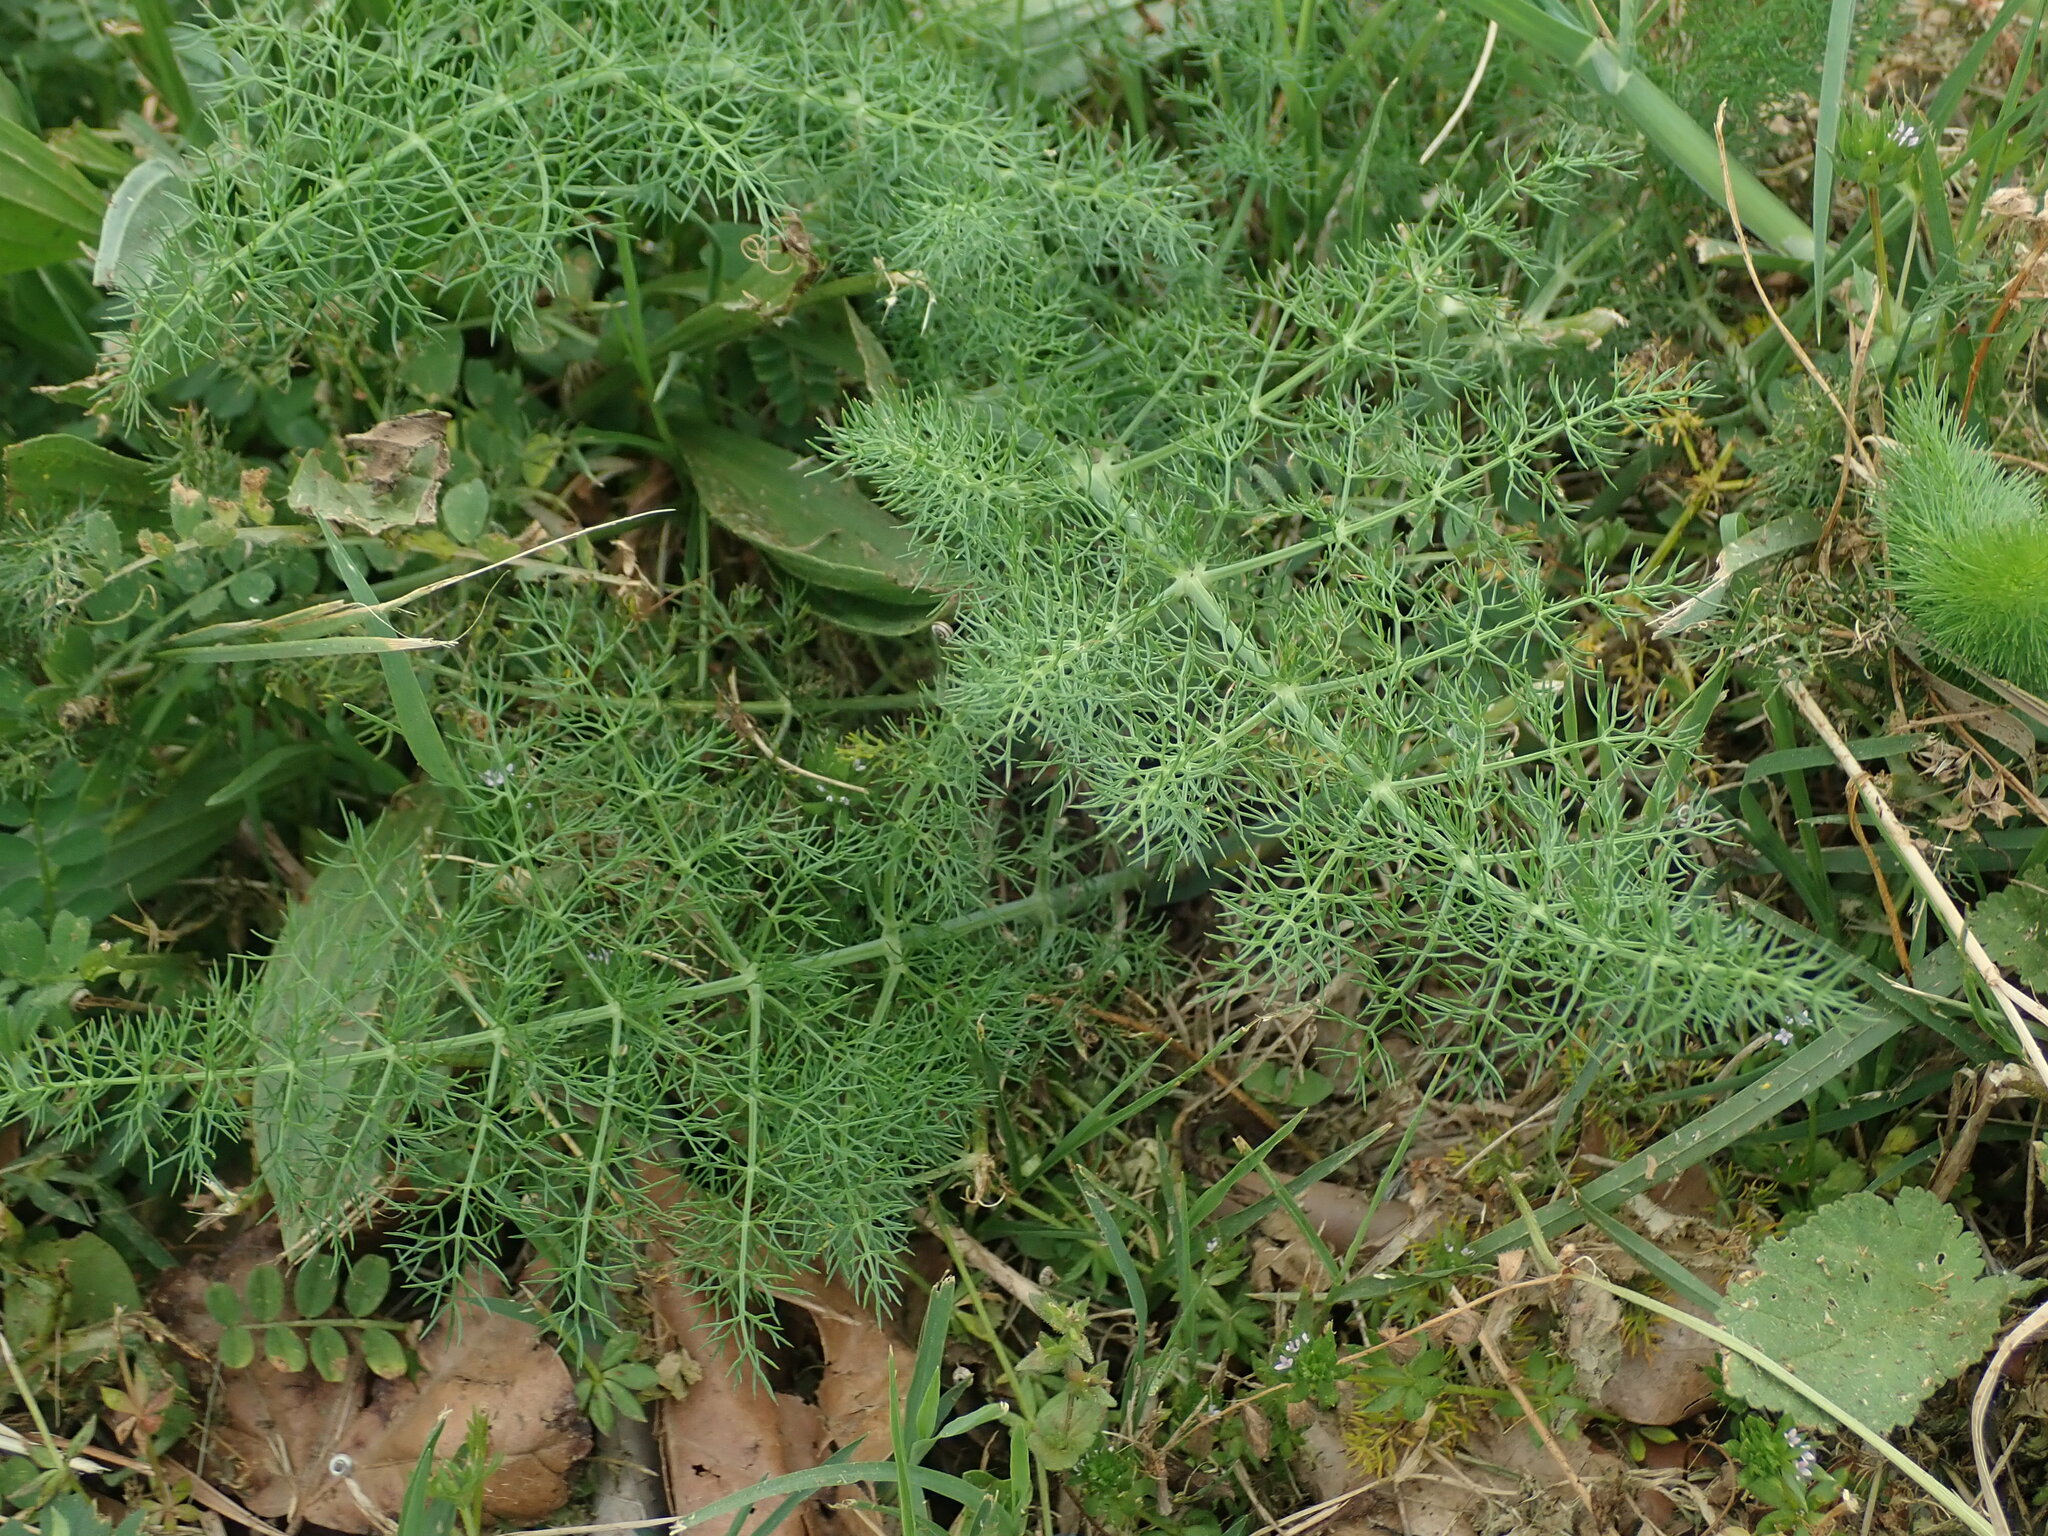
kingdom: Plantae
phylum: Tracheophyta
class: Magnoliopsida
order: Apiales
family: Apiaceae
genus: Foeniculum
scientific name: Foeniculum vulgare
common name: Fennel
